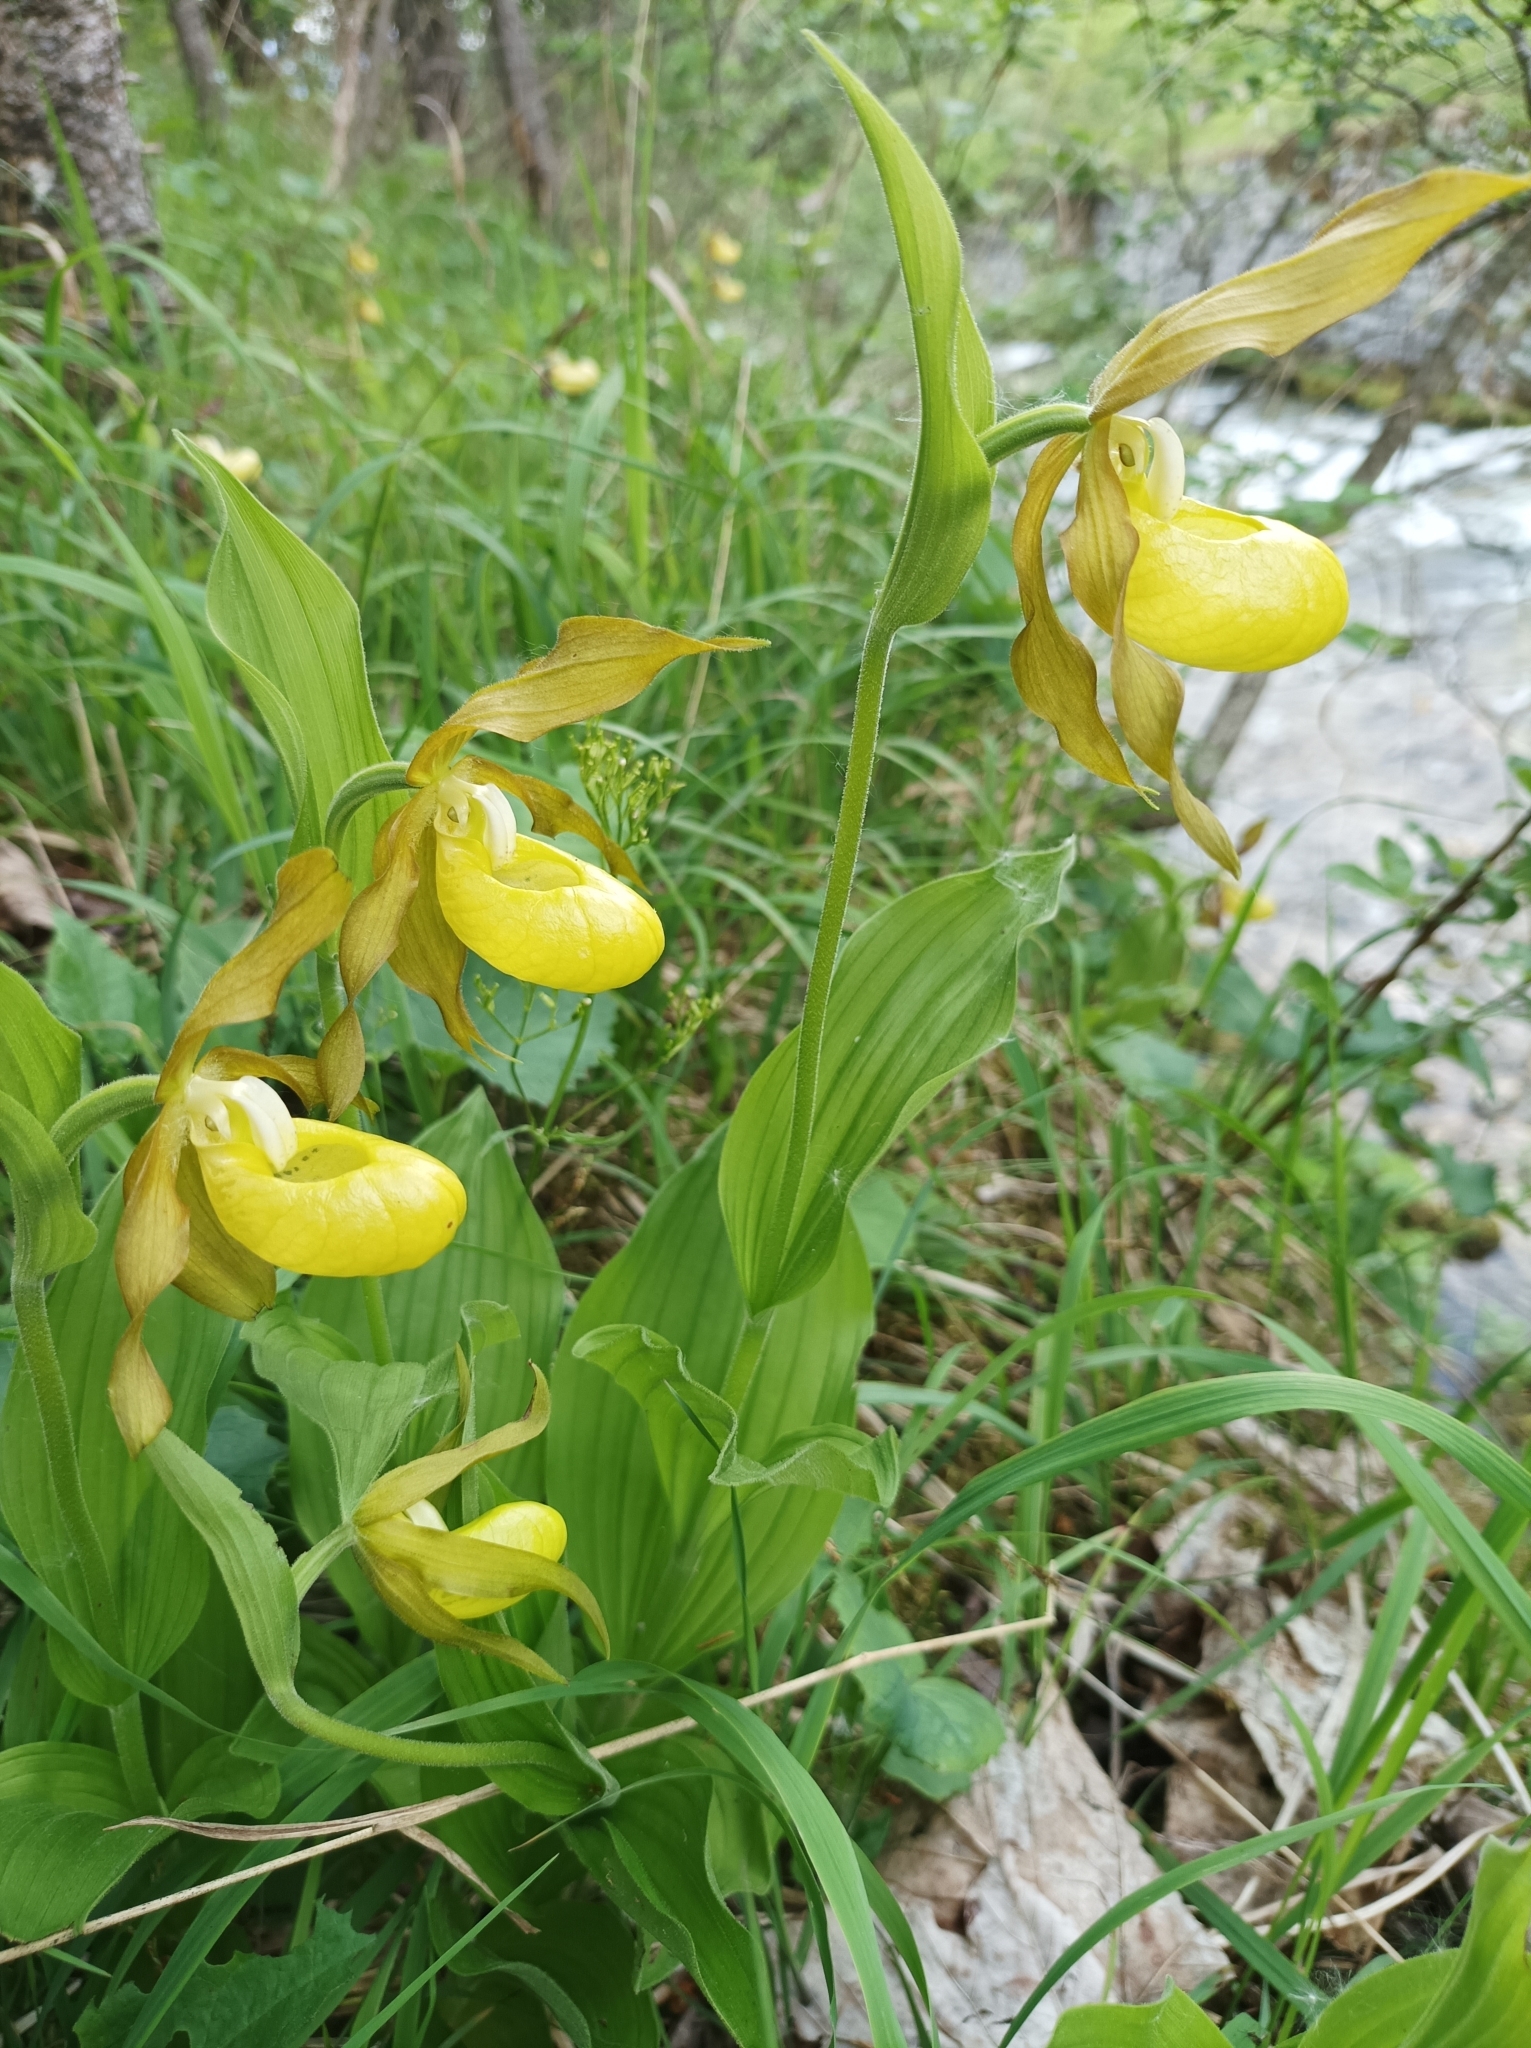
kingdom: Plantae
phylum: Tracheophyta
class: Liliopsida
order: Asparagales
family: Orchidaceae
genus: Cypripedium
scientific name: Cypripedium calceolus
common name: Lady's-slipper
